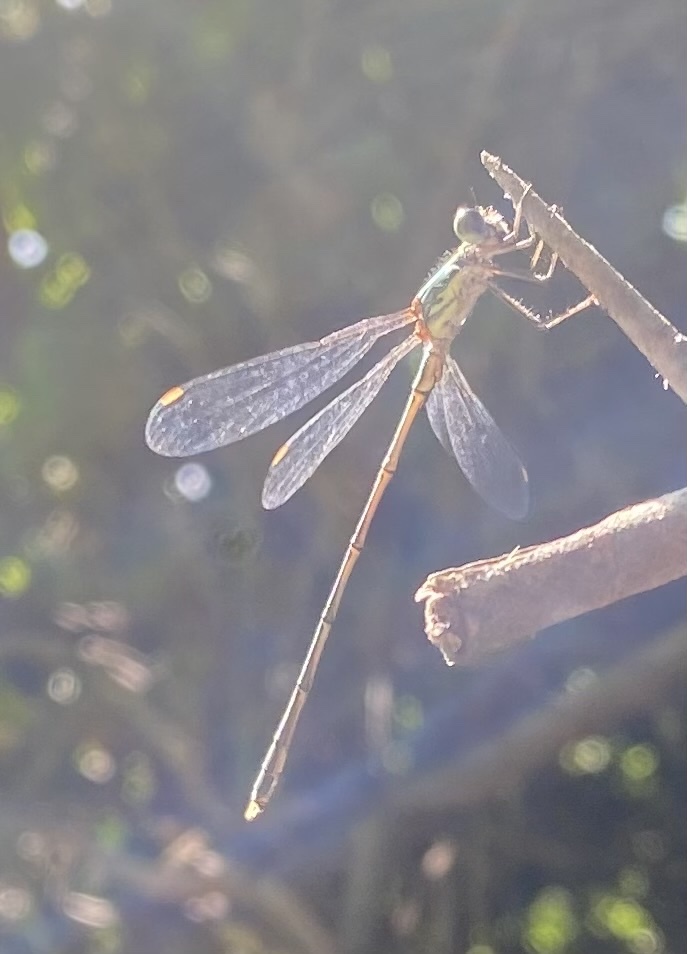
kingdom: Animalia
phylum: Arthropoda
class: Insecta
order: Odonata
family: Lestidae
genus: Chalcolestes
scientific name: Chalcolestes parvidens
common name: Eastern willow spreadwing
